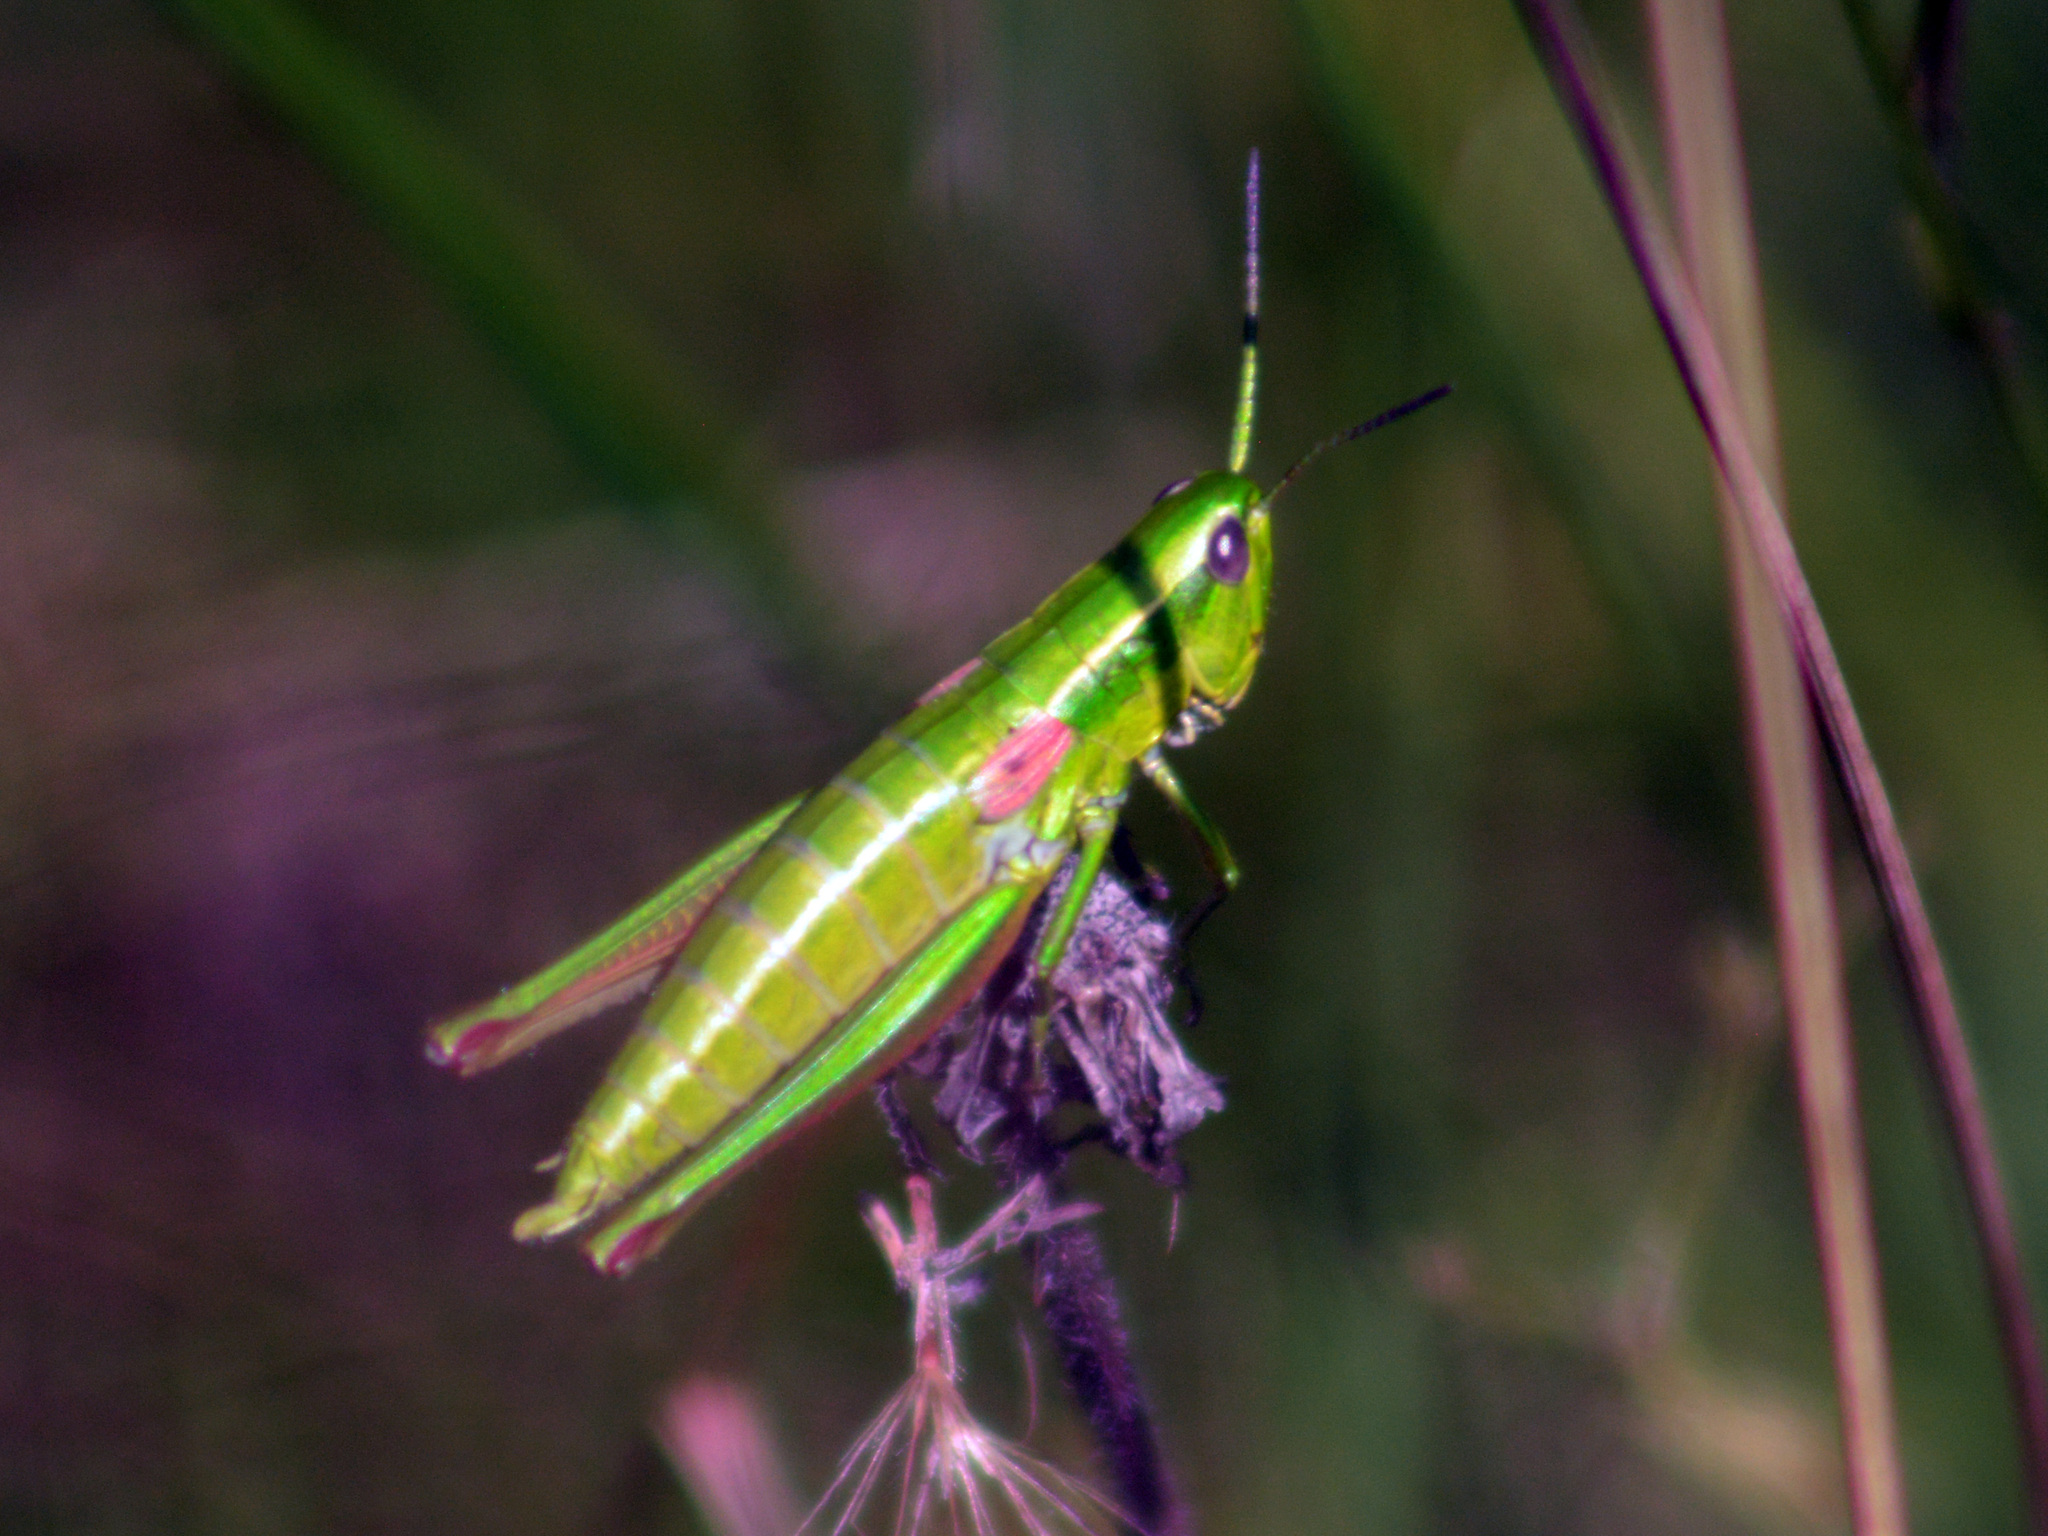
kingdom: Animalia
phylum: Arthropoda
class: Insecta
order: Orthoptera
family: Acrididae
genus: Euthystira
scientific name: Euthystira brachyptera
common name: Small gold grasshopper
